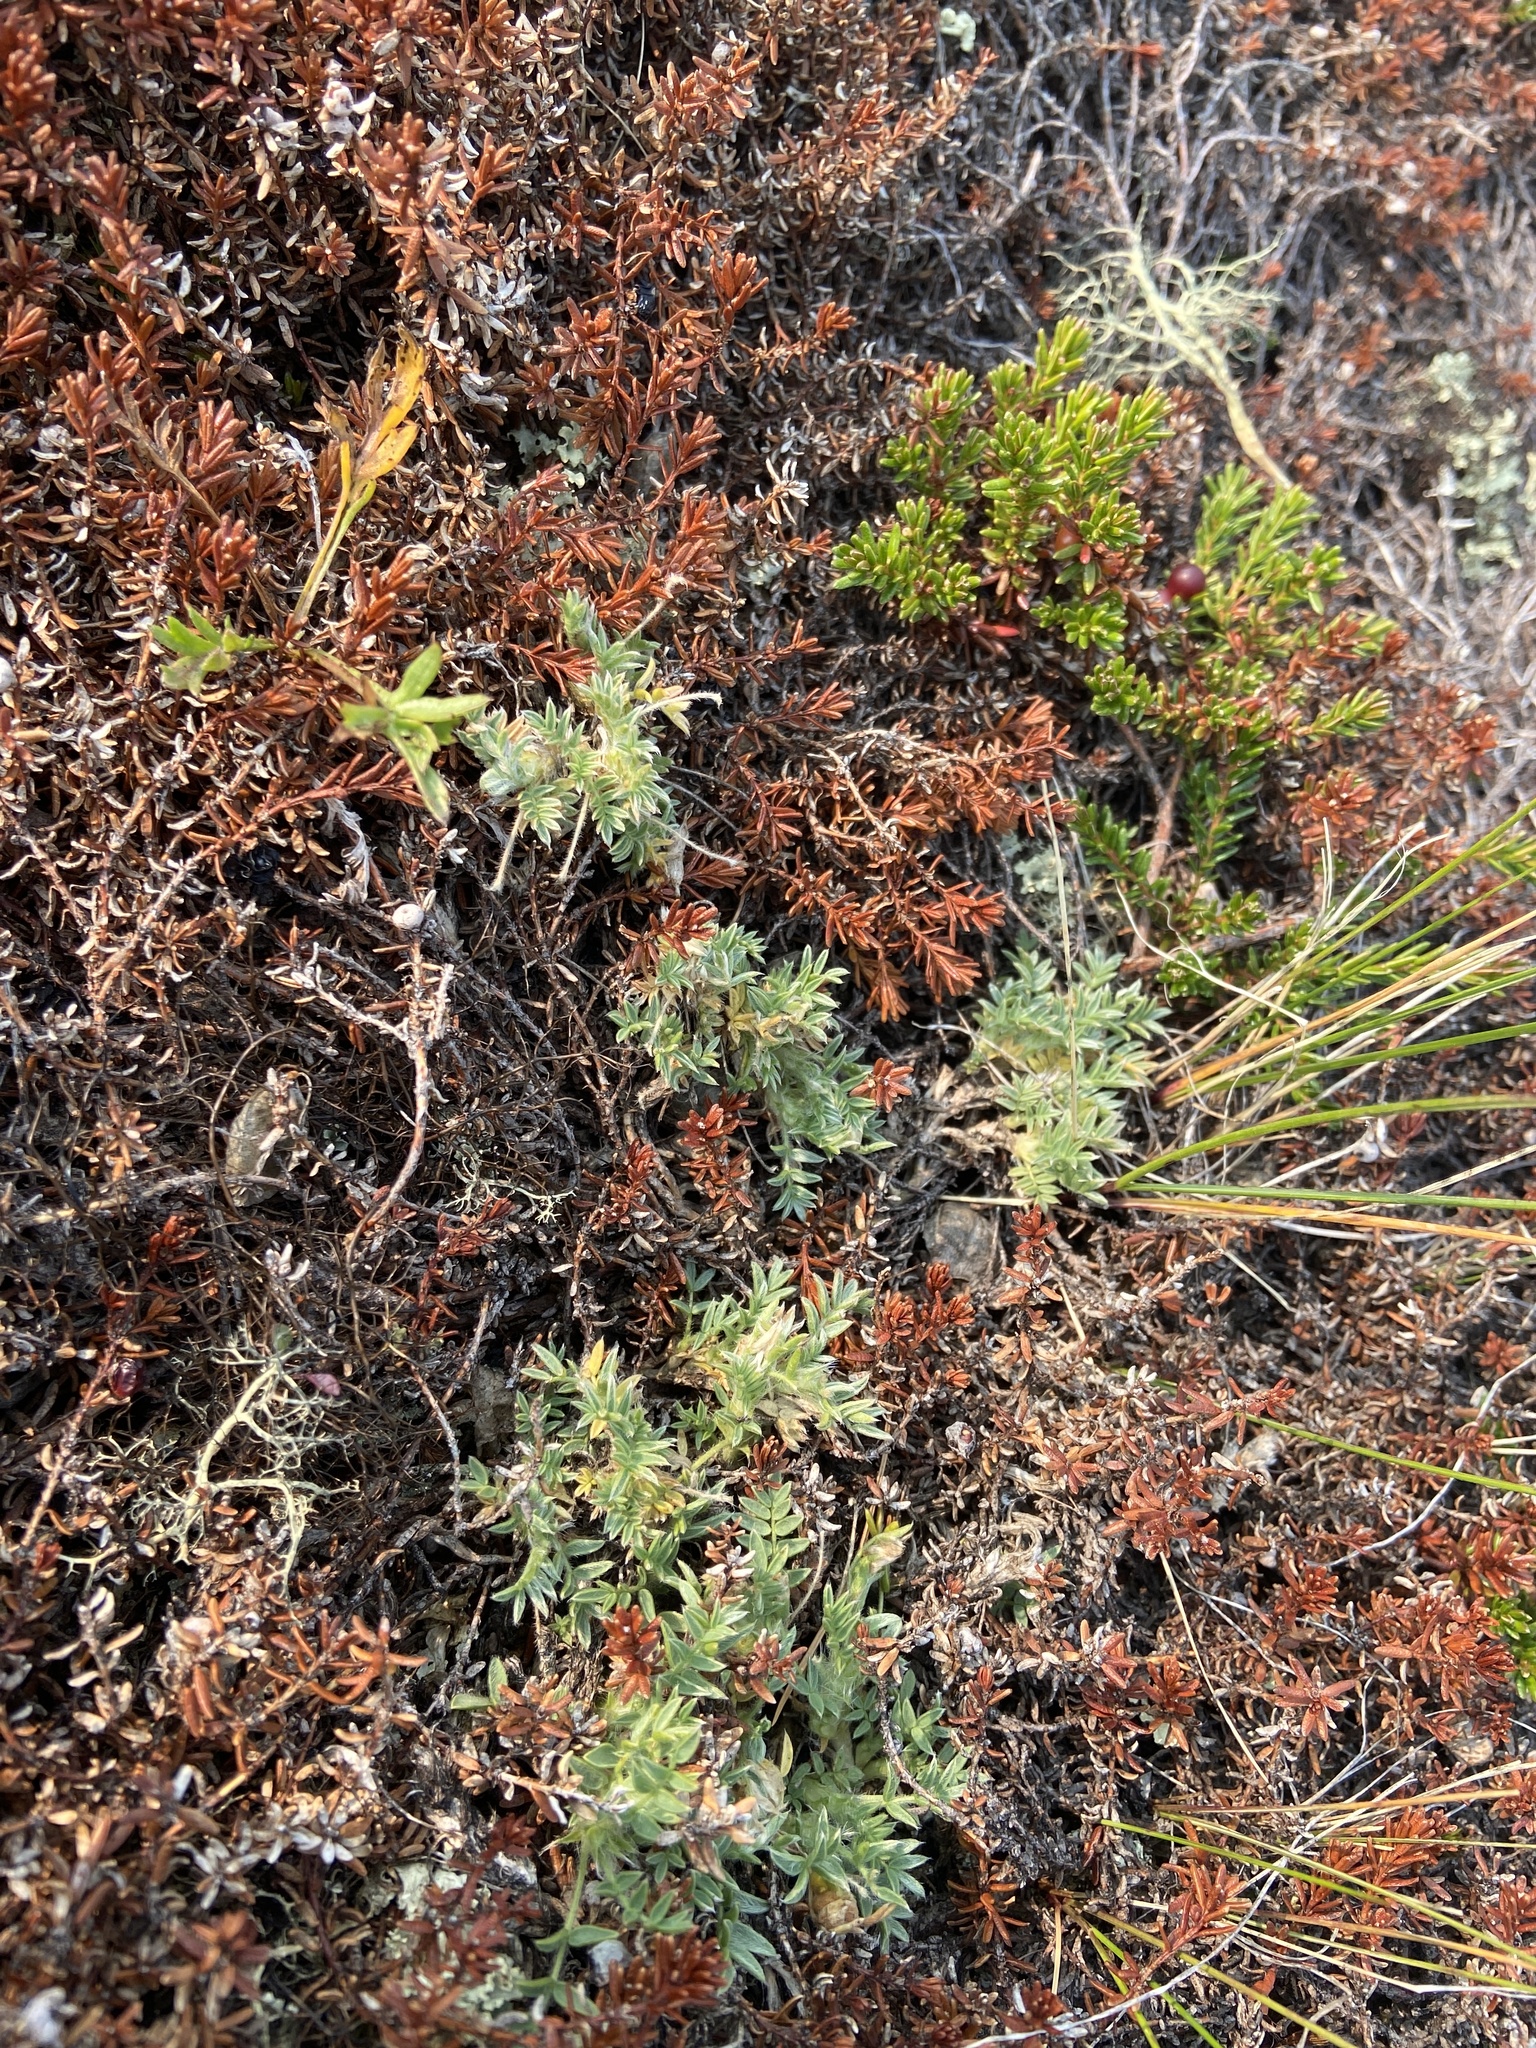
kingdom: Plantae
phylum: Tracheophyta
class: Magnoliopsida
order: Fabales
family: Fabaceae
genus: Oxytropis
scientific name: Oxytropis susumanica
